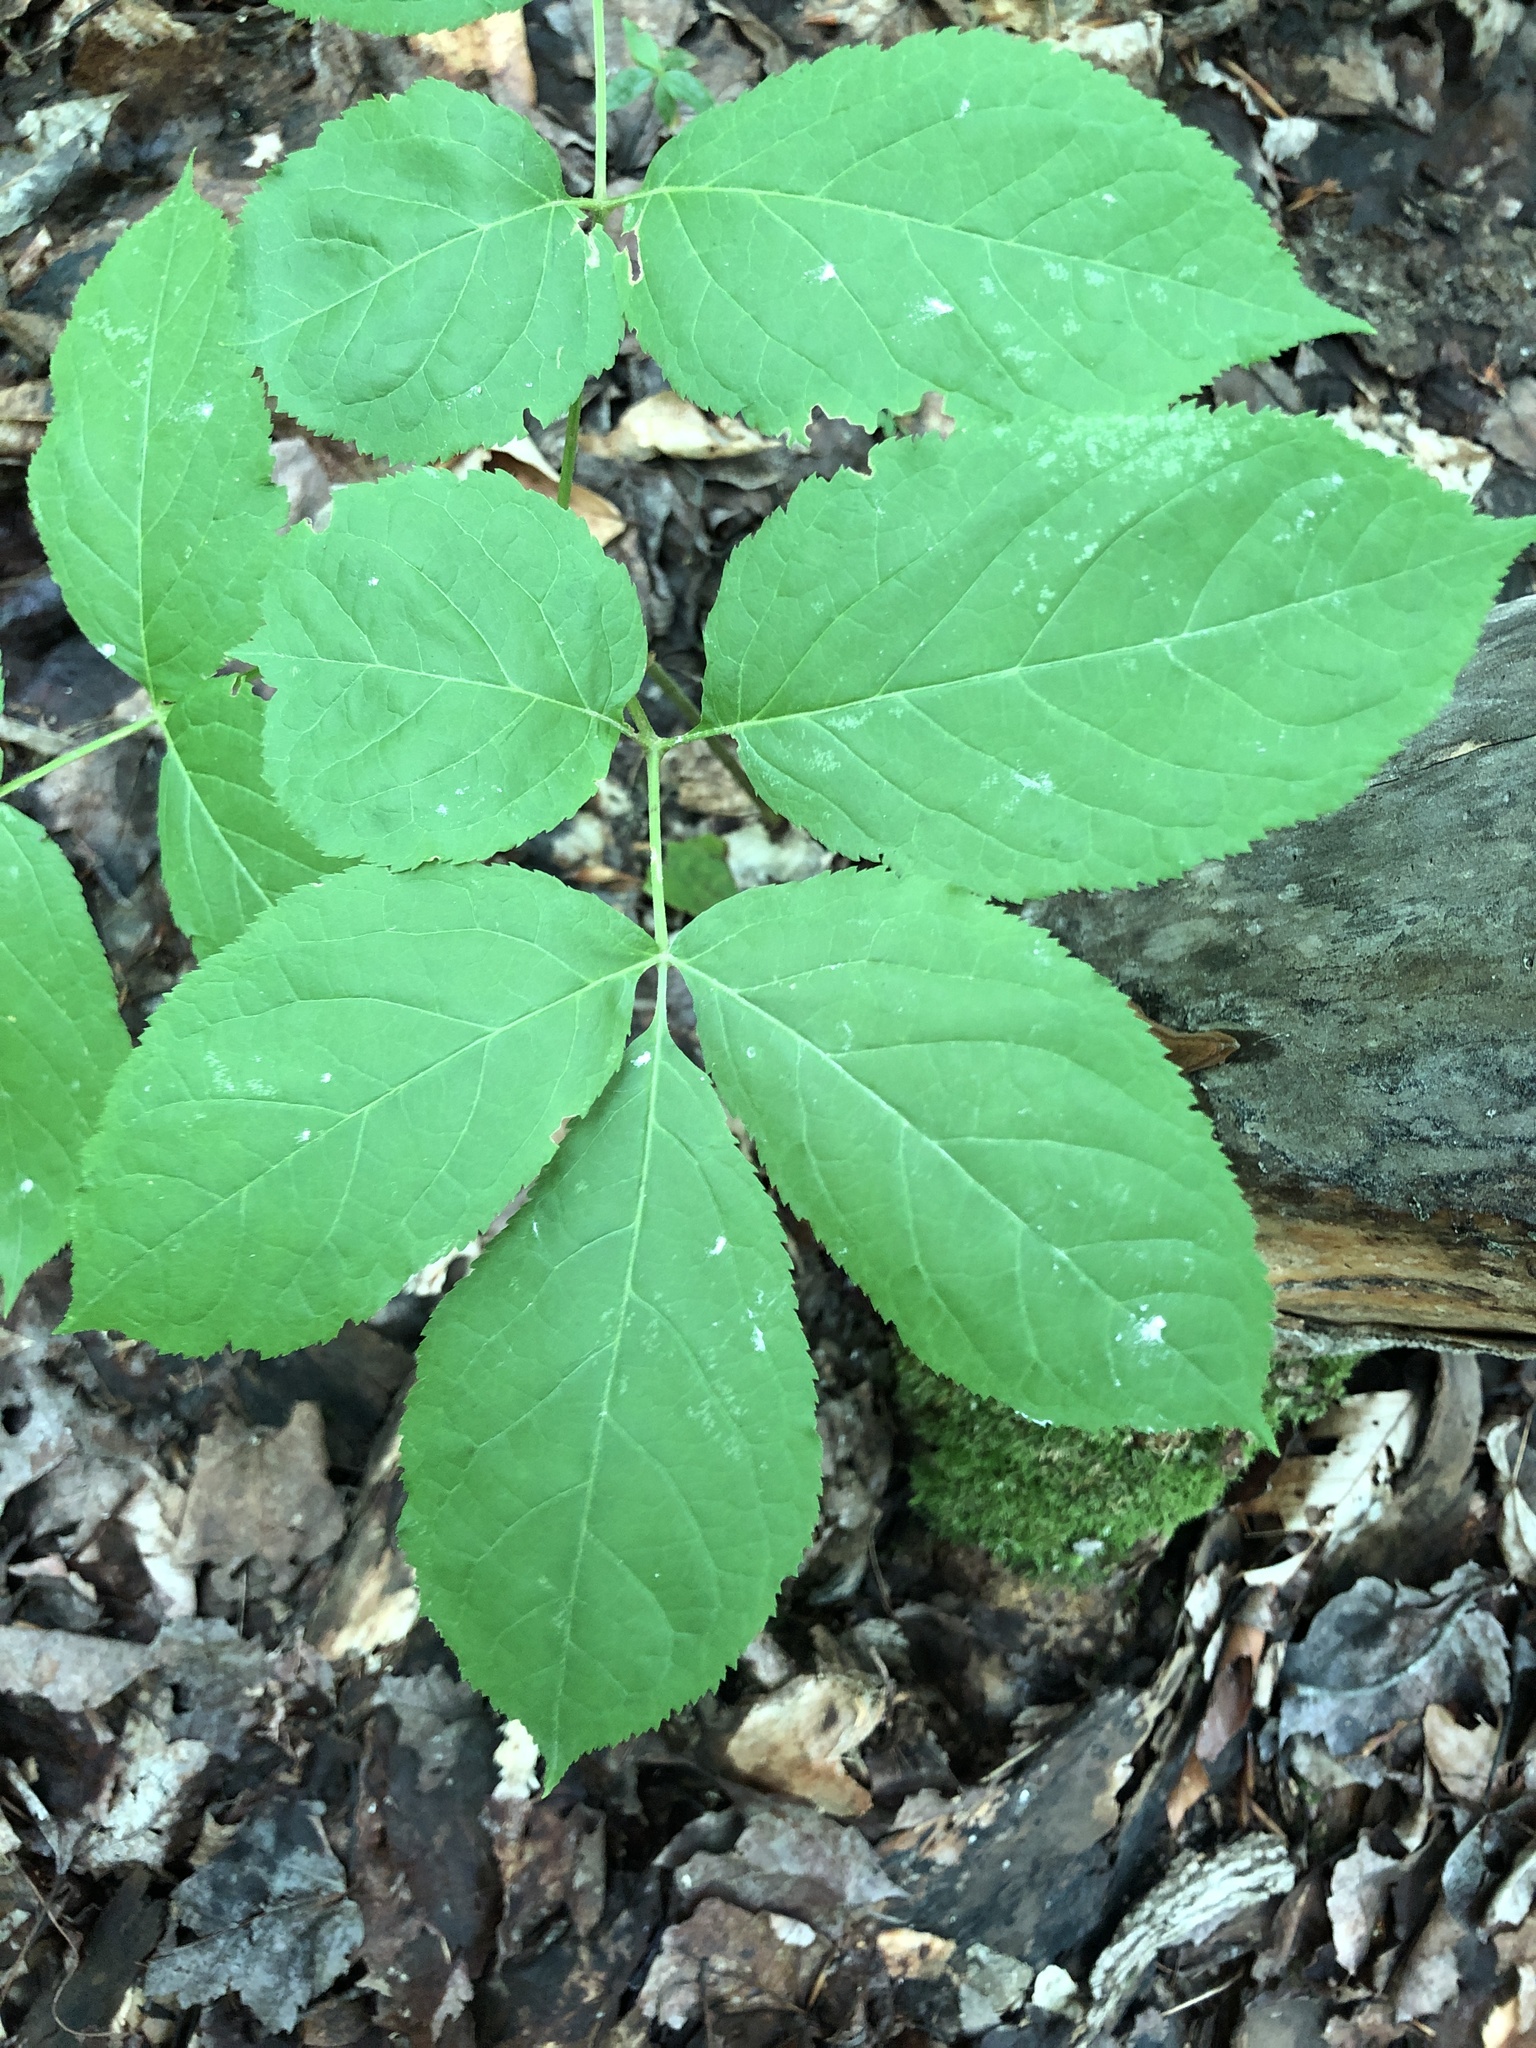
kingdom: Plantae
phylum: Tracheophyta
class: Magnoliopsida
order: Apiales
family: Araliaceae
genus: Aralia
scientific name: Aralia nudicaulis
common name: Wild sarsaparilla
